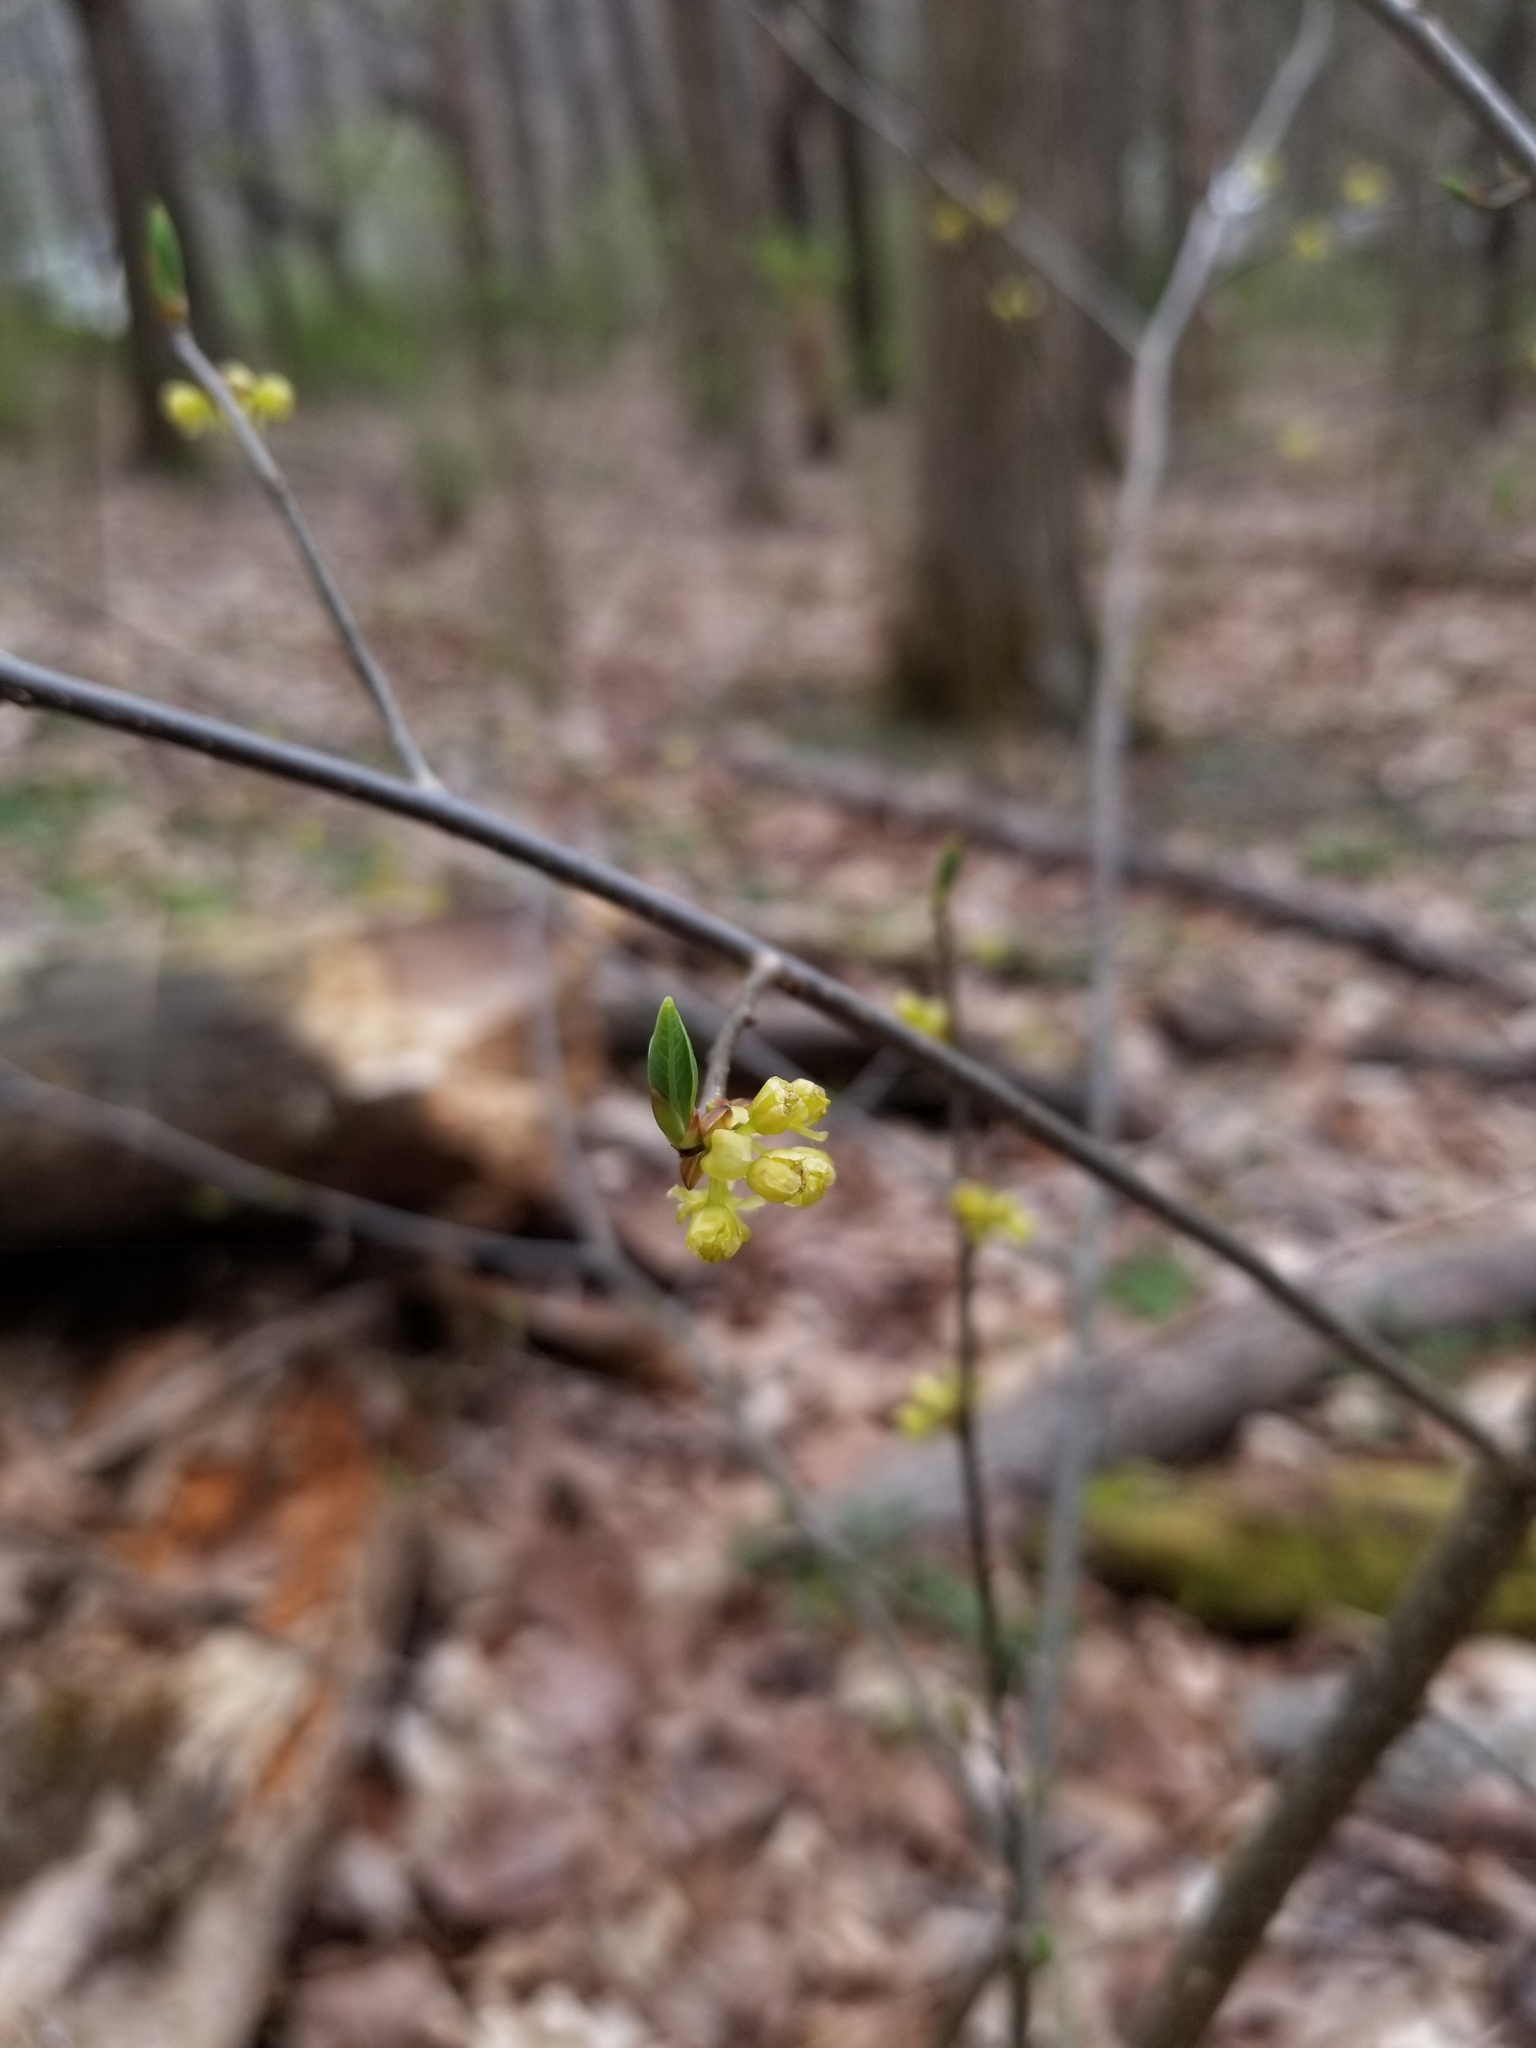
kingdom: Plantae
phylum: Tracheophyta
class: Magnoliopsida
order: Laurales
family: Lauraceae
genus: Lindera
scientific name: Lindera benzoin
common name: Spicebush
